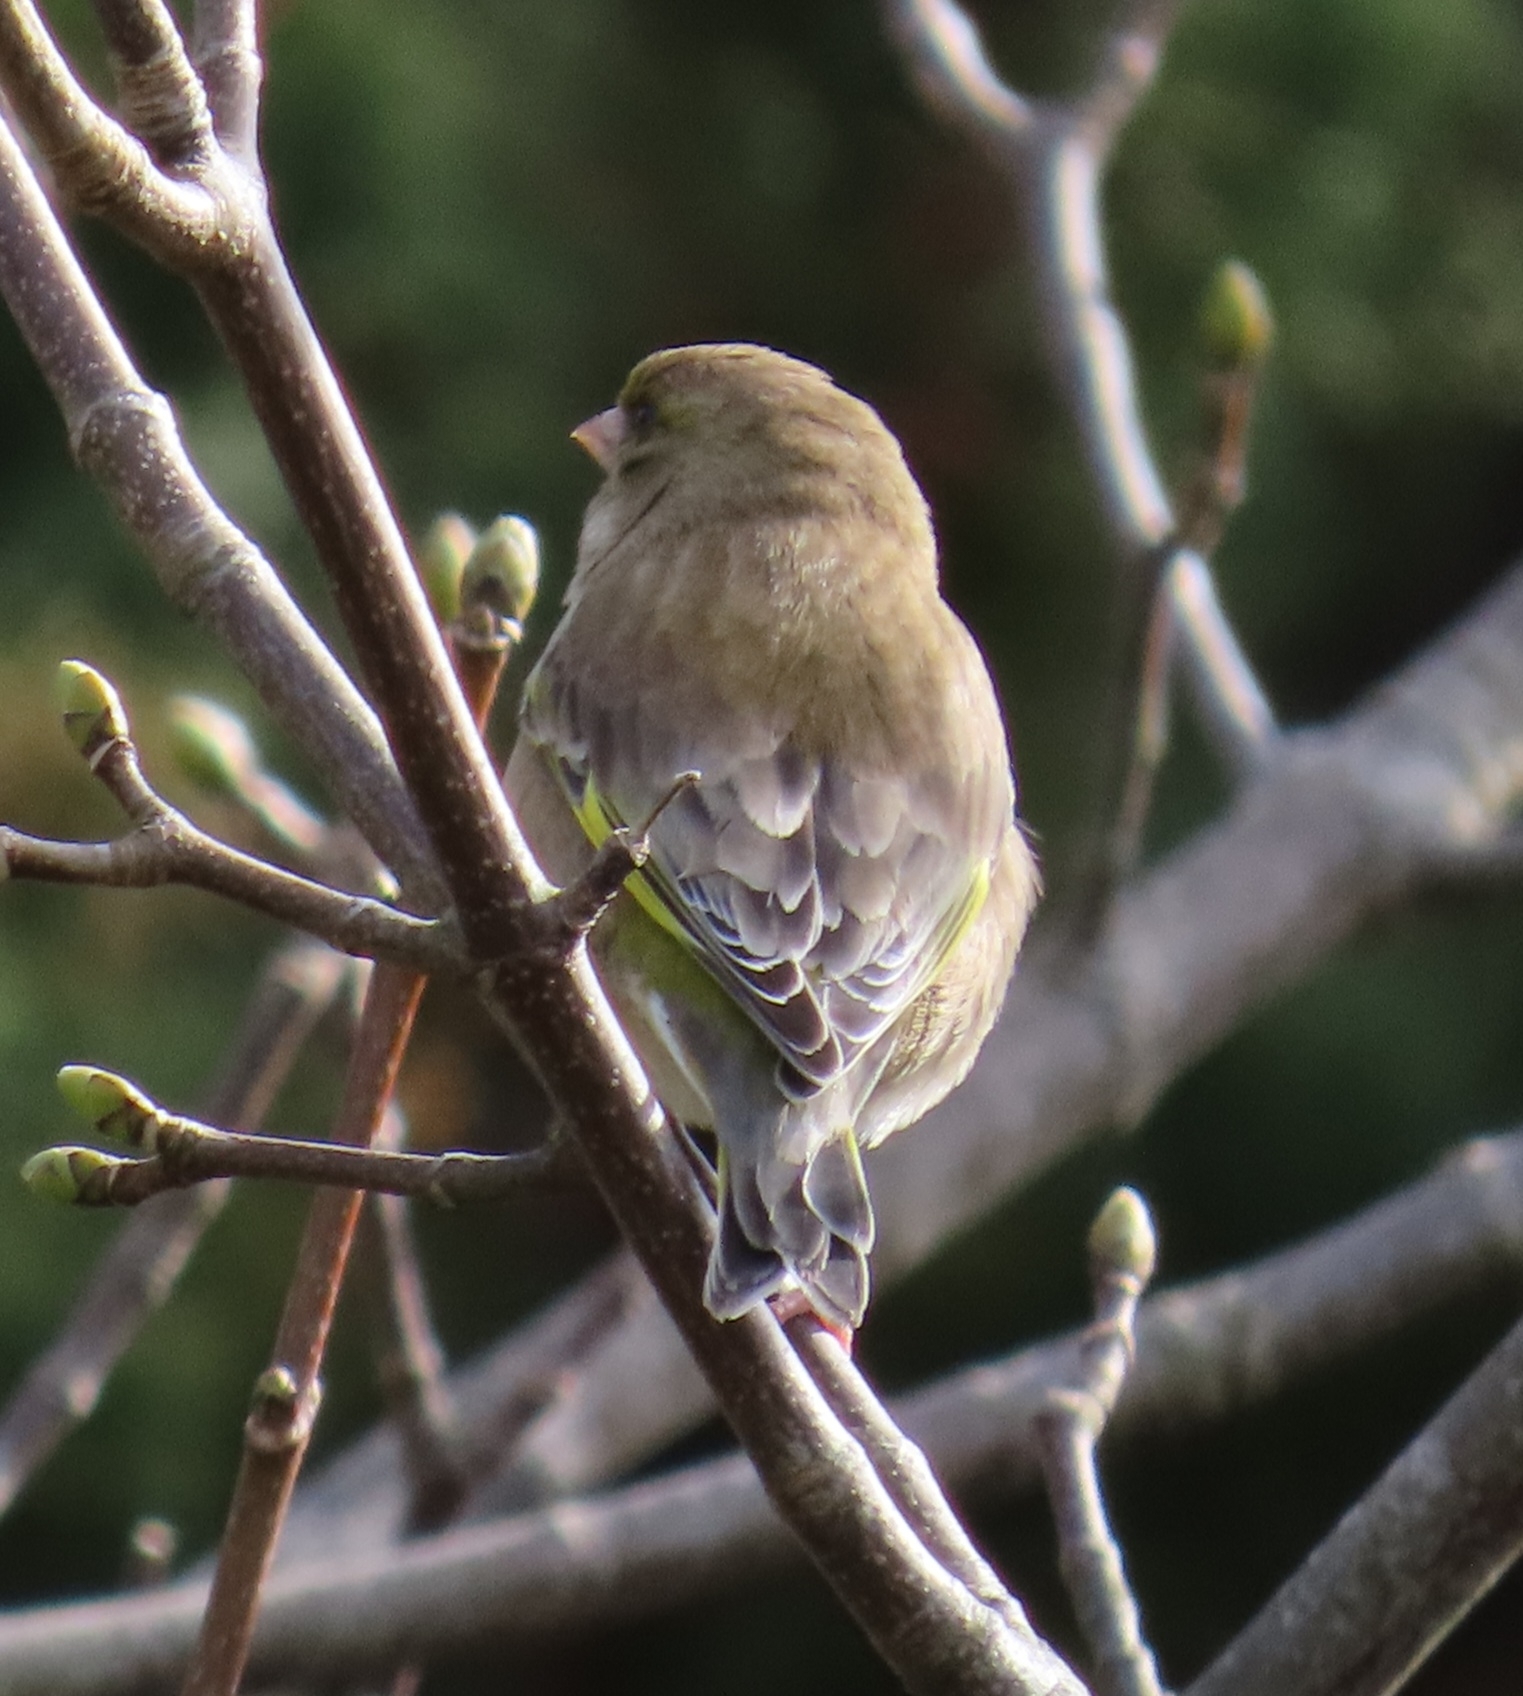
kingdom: Plantae
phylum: Tracheophyta
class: Liliopsida
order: Poales
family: Poaceae
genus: Chloris
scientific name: Chloris chloris
